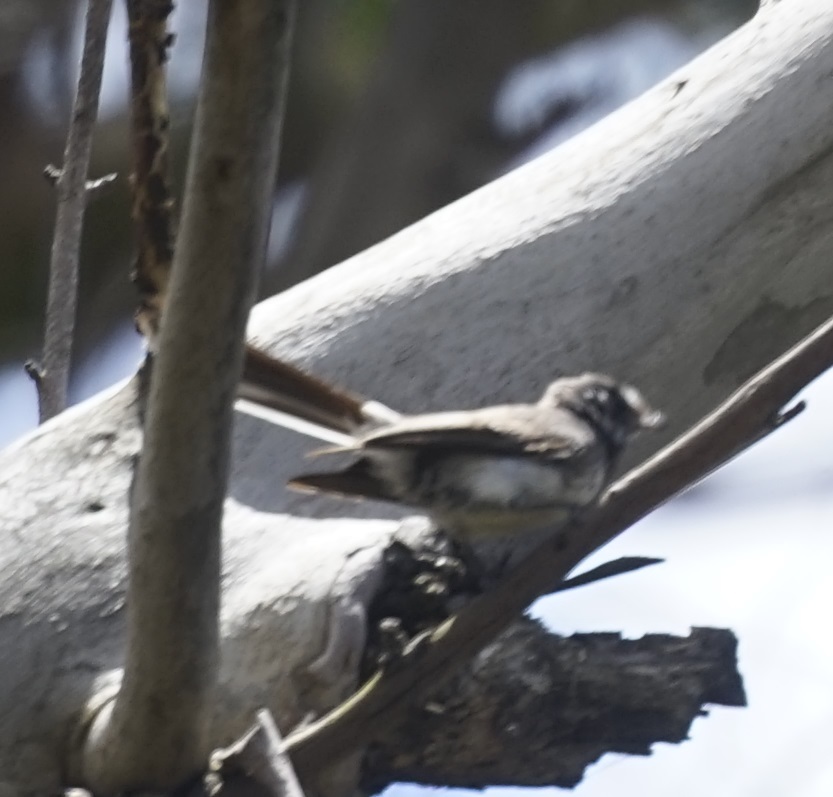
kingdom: Animalia
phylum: Chordata
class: Aves
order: Passeriformes
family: Rhipiduridae
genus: Rhipidura
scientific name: Rhipidura albiscapa
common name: Grey fantail
